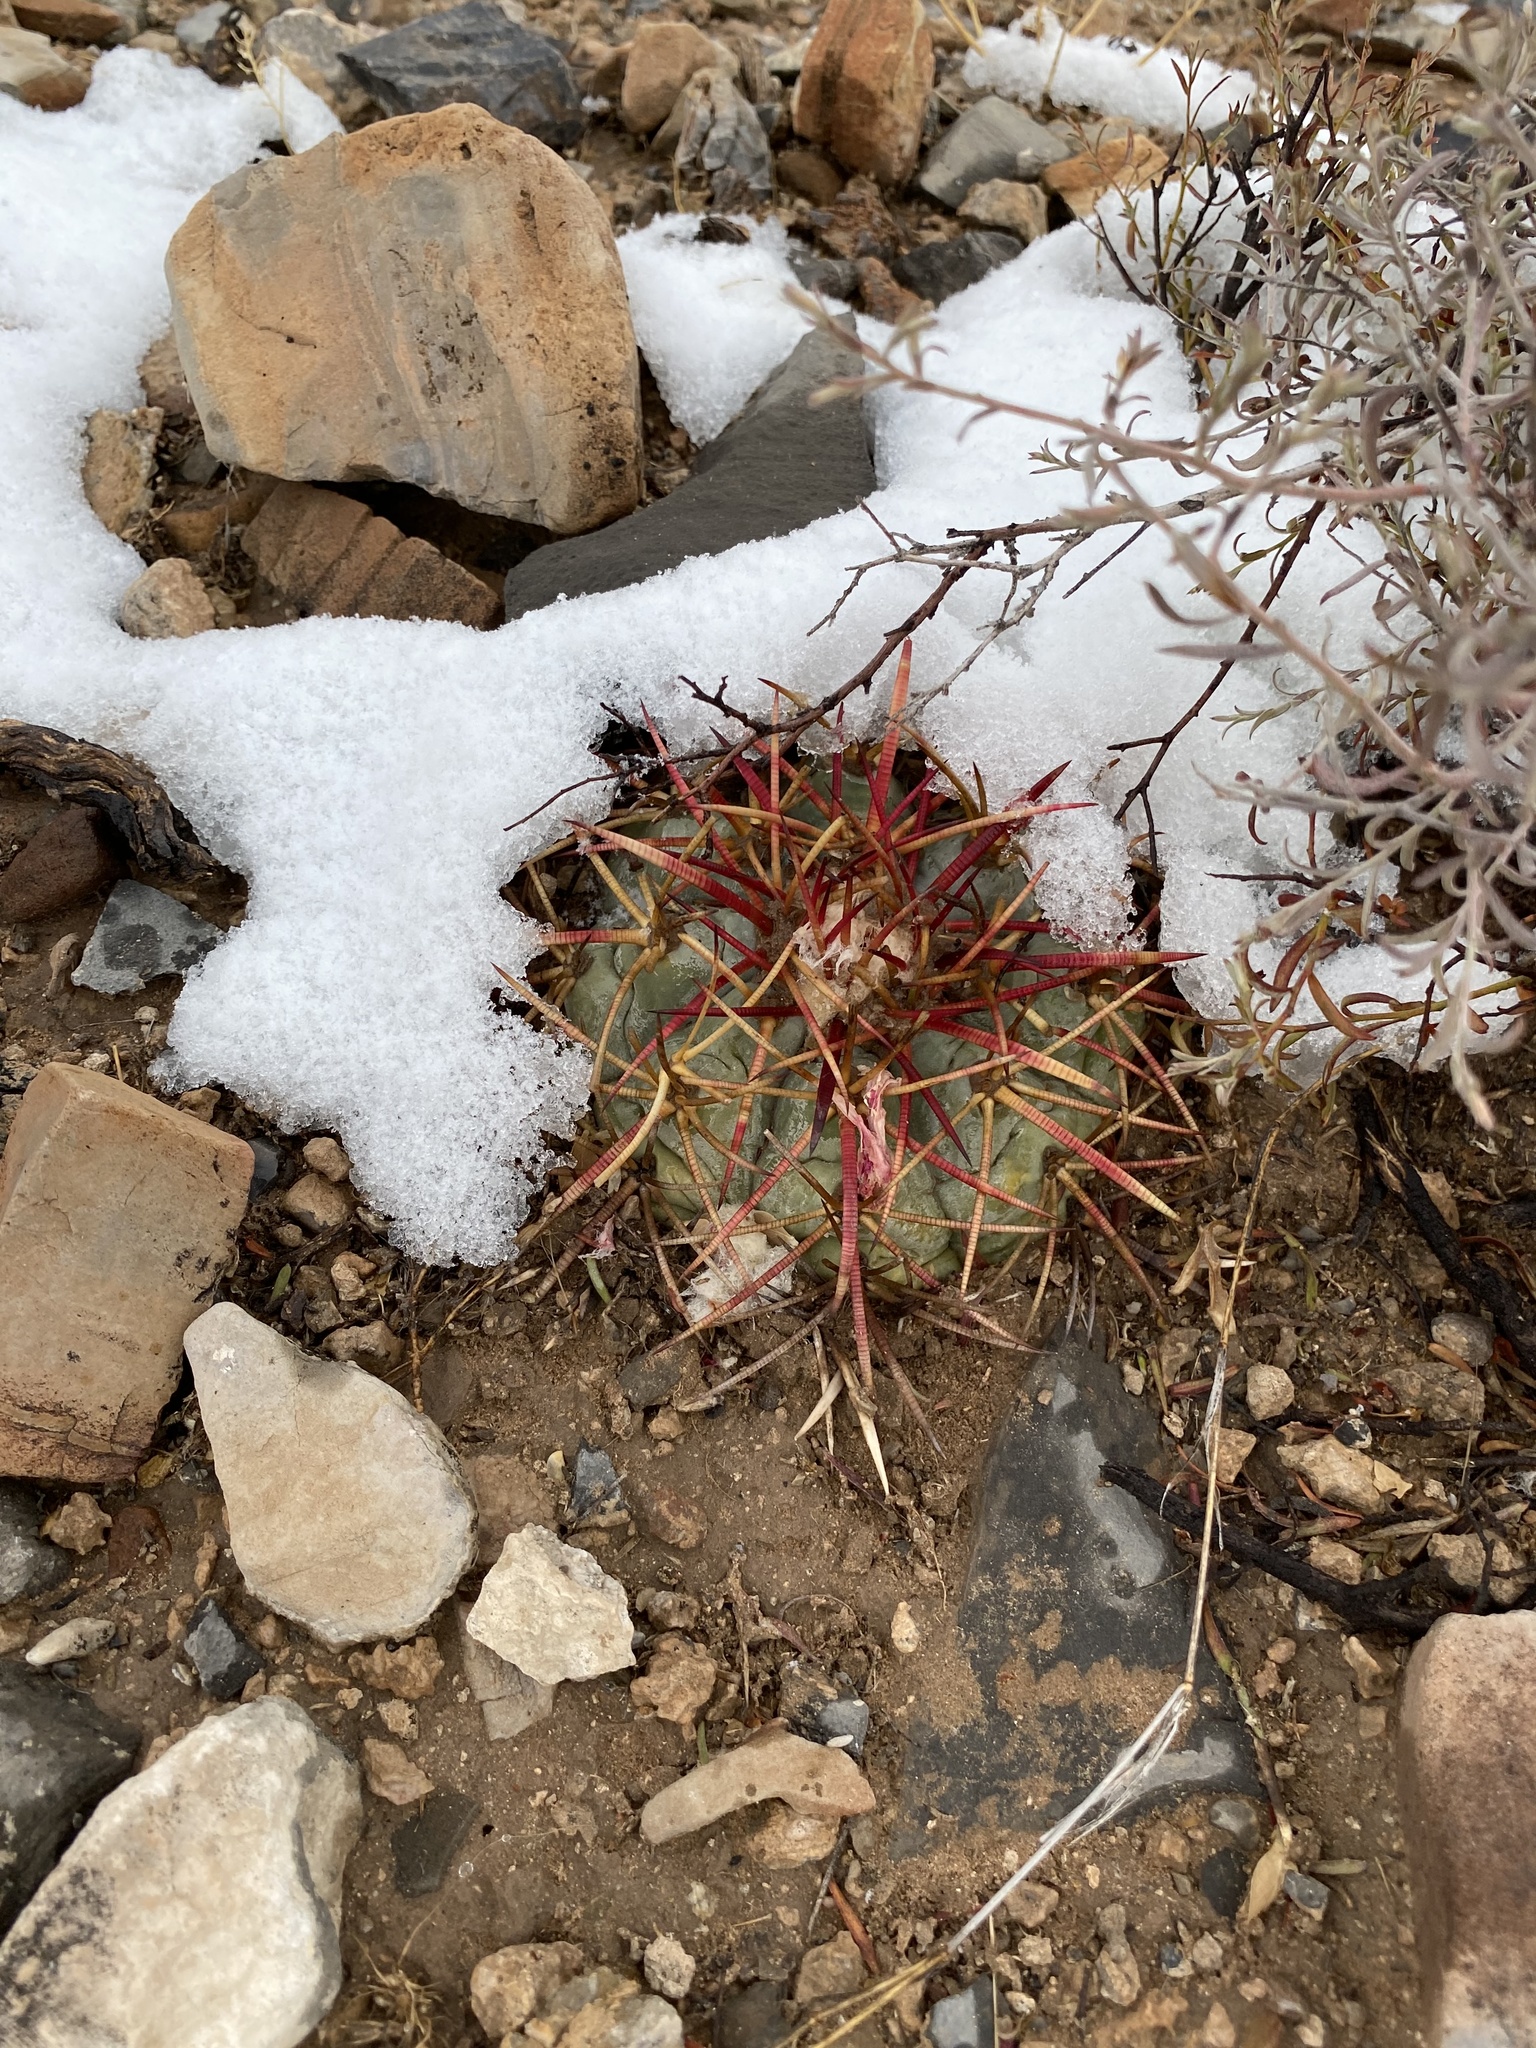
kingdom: Plantae
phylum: Tracheophyta
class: Magnoliopsida
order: Caryophyllales
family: Cactaceae
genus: Echinocactus
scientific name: Echinocactus horizonthalonius
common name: Devilshead
